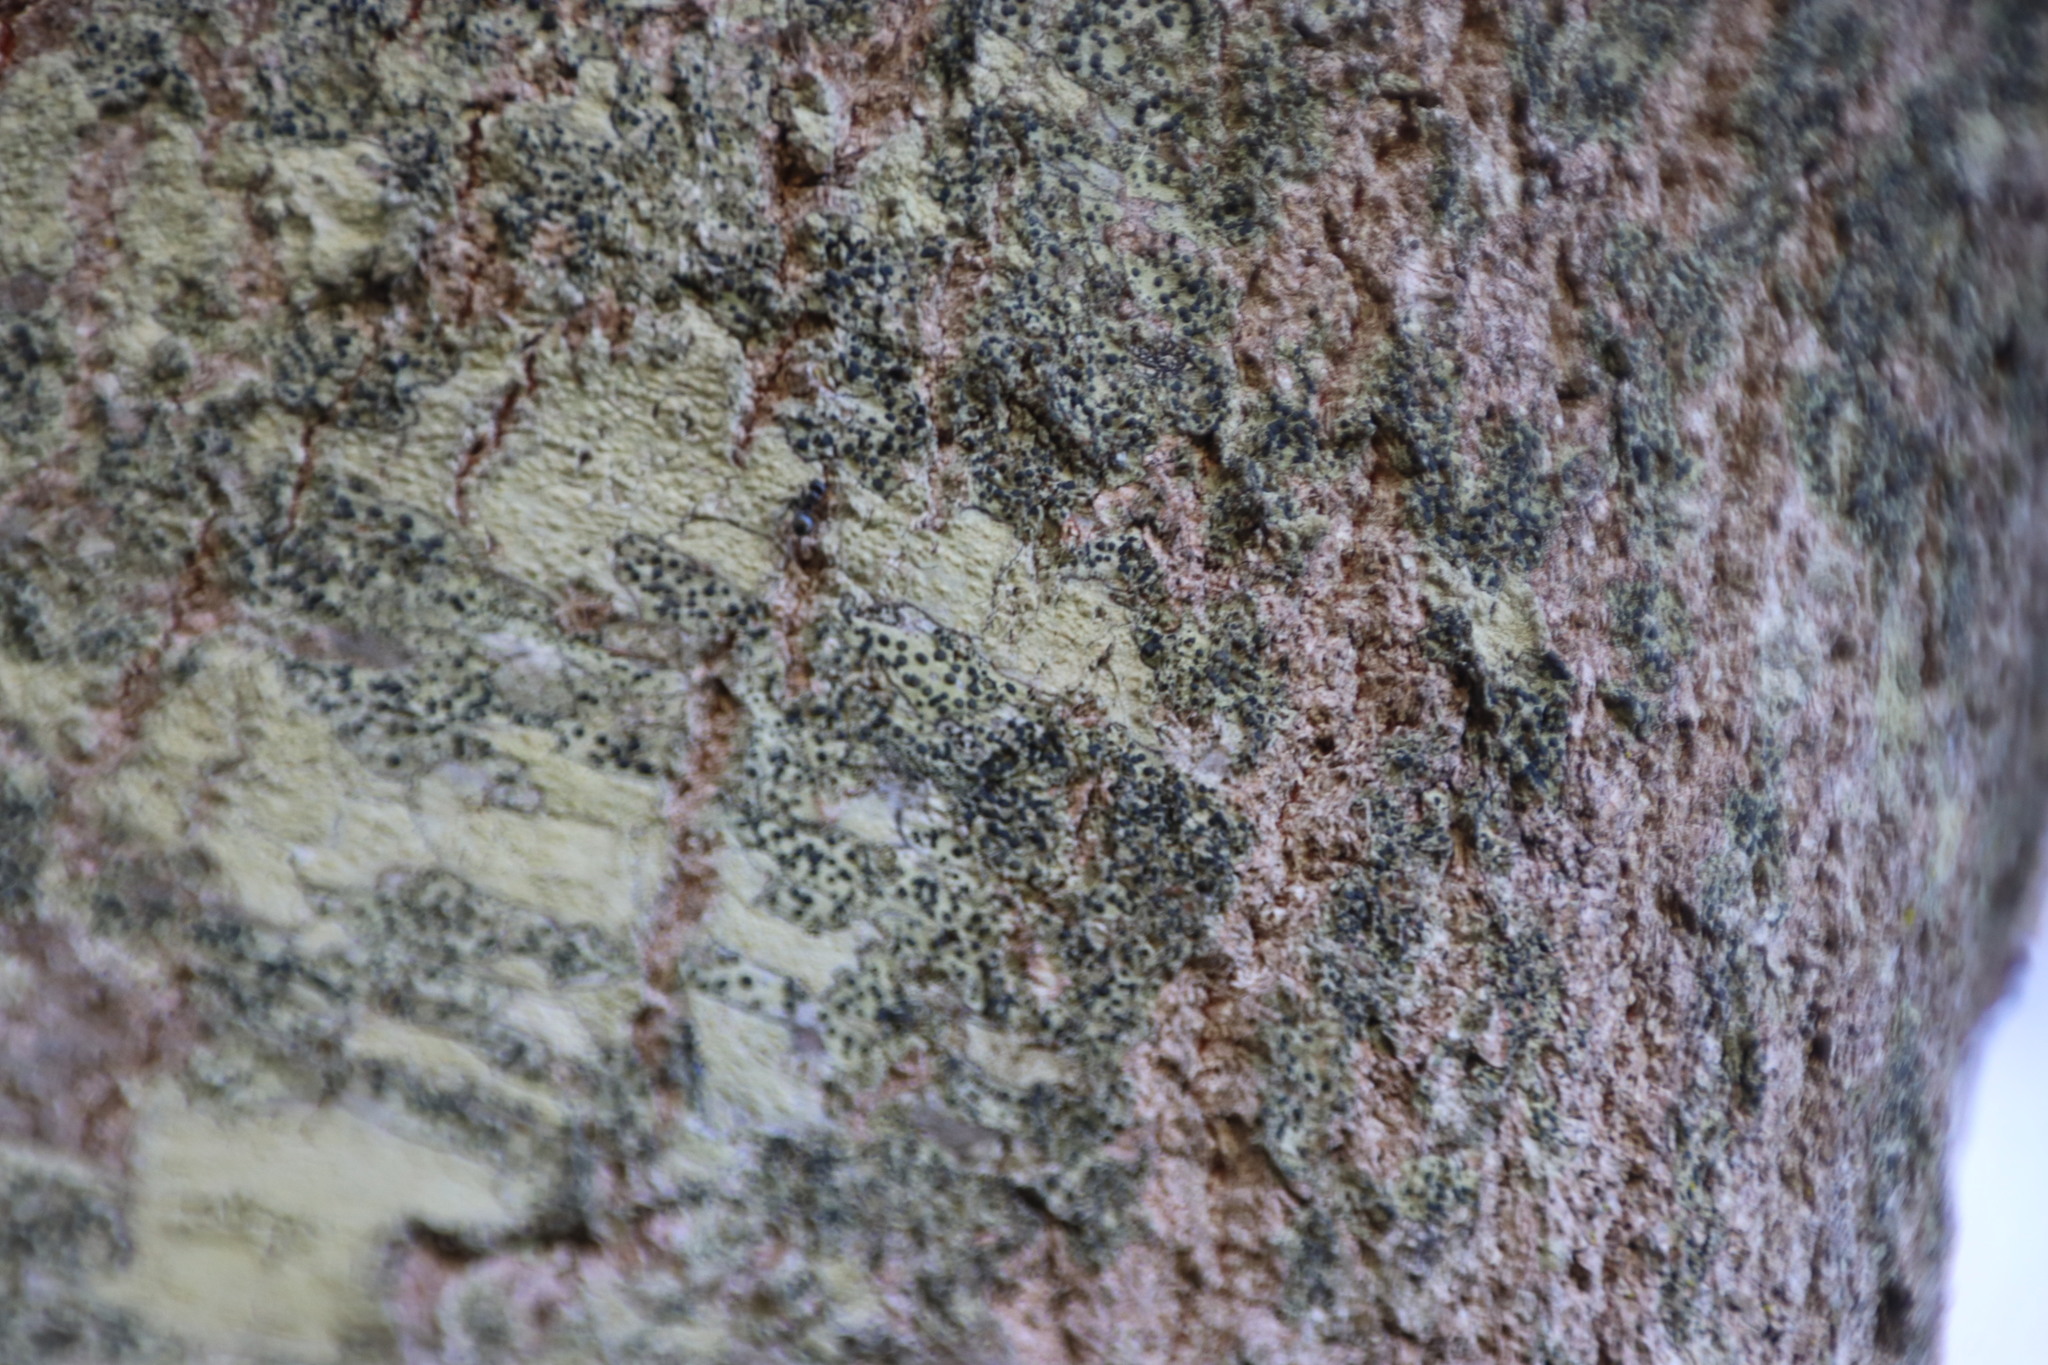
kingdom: Animalia
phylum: Arthropoda
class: Insecta
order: Hymenoptera
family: Formicidae
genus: Crematogaster
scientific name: Crematogaster peringueyi
